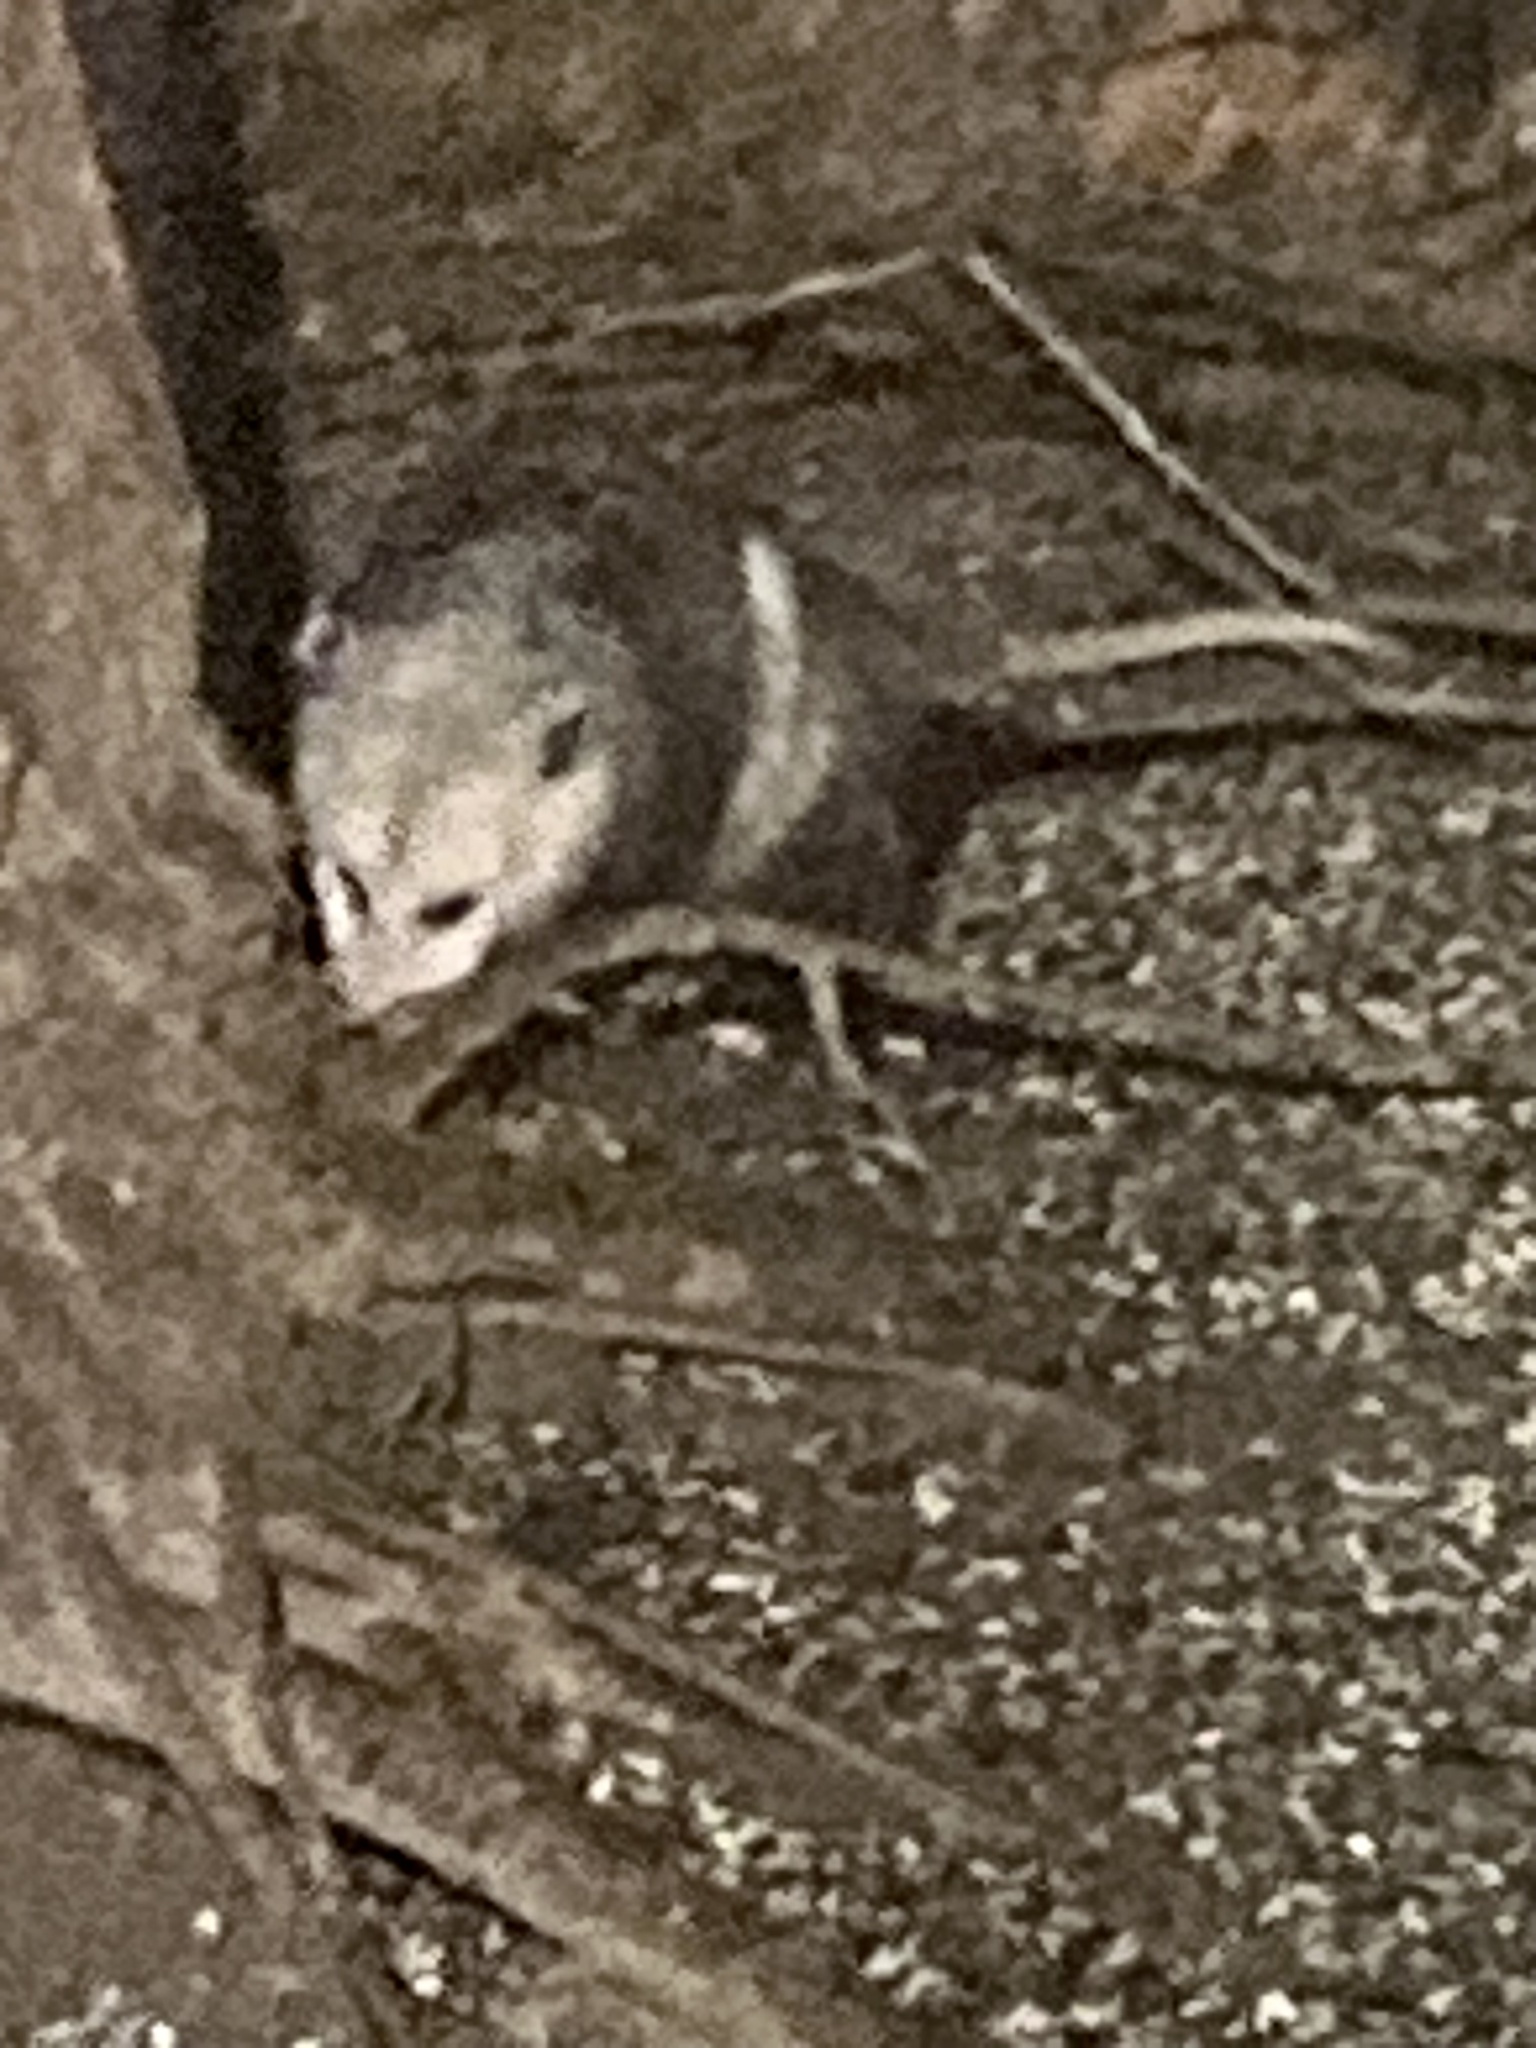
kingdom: Animalia
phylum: Chordata
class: Mammalia
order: Didelphimorphia
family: Didelphidae
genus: Didelphis
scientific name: Didelphis virginiana
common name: Virginia opossum
